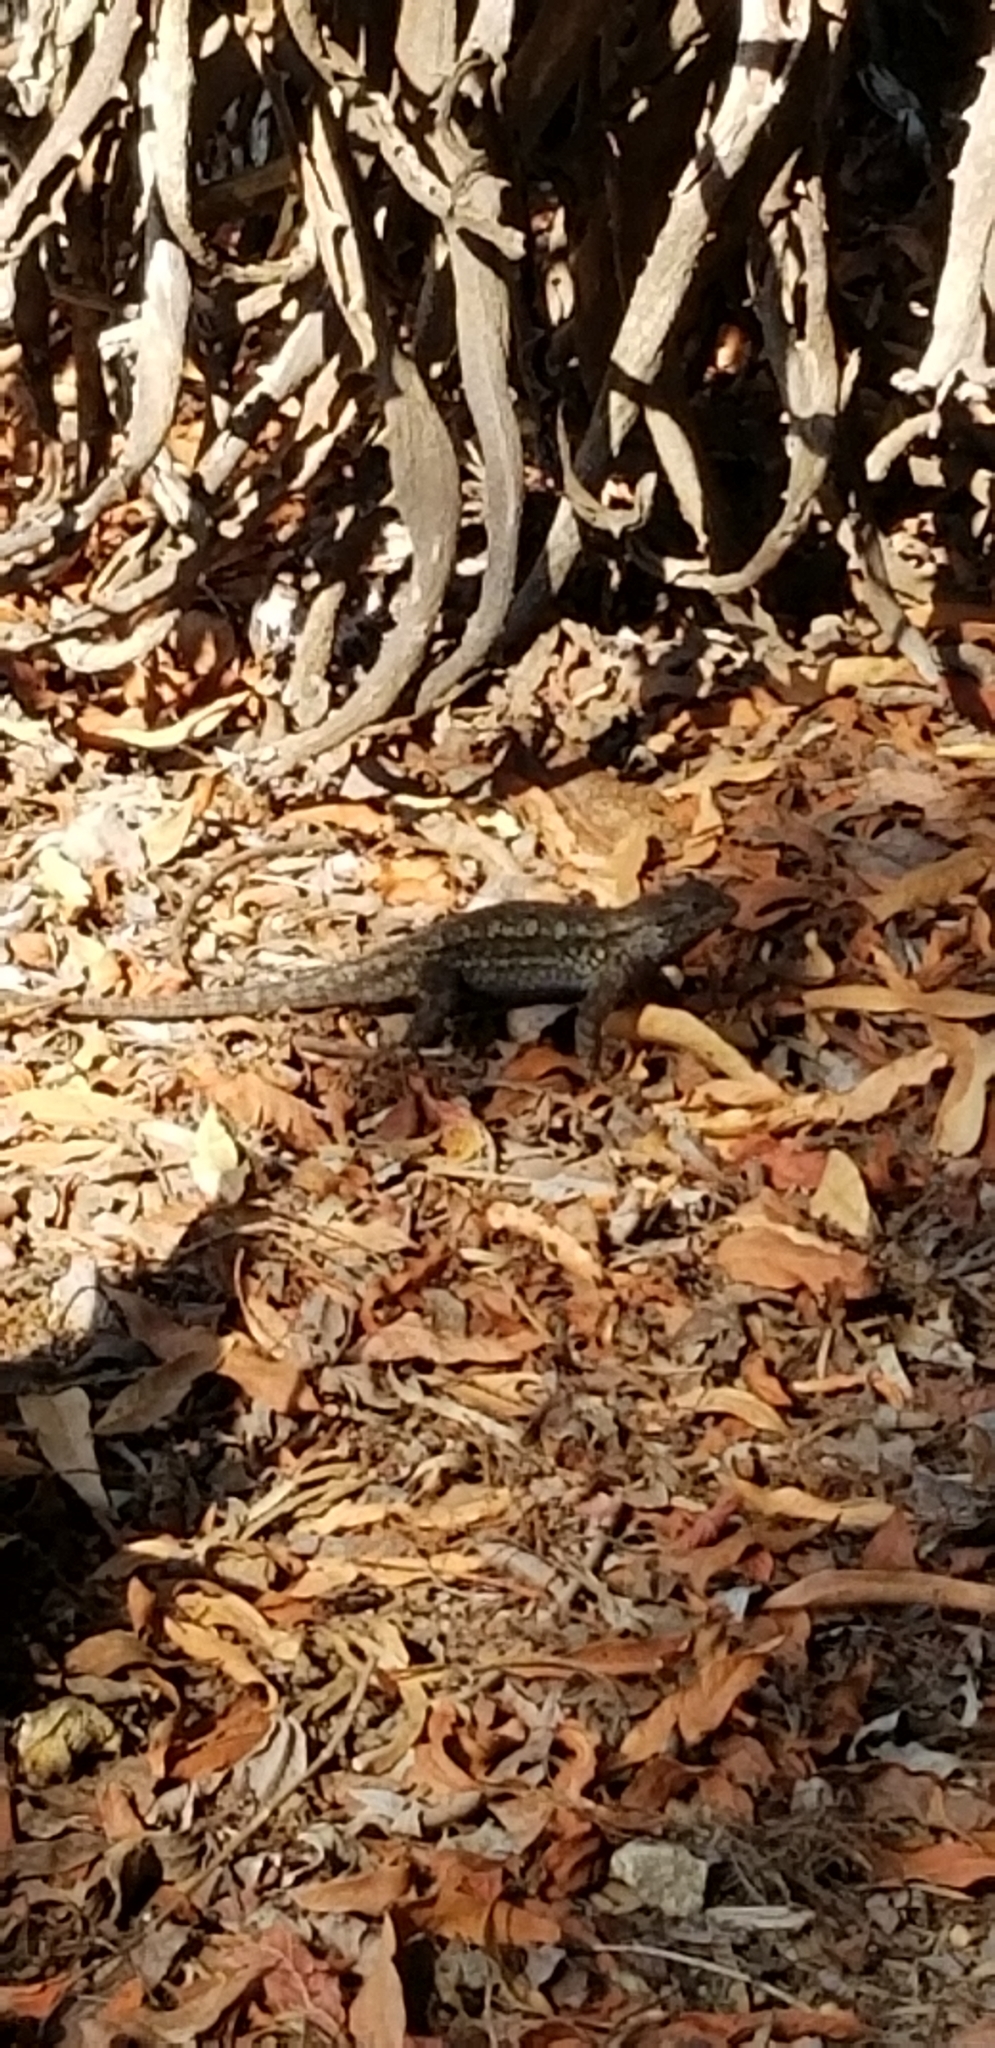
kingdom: Animalia
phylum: Chordata
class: Squamata
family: Phrynosomatidae
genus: Sceloporus
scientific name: Sceloporus occidentalis
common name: Western fence lizard
